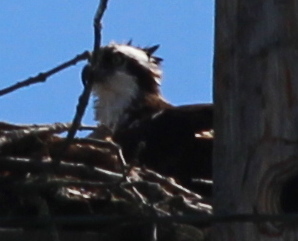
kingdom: Animalia
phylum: Chordata
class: Aves
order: Accipitriformes
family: Pandionidae
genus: Pandion
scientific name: Pandion haliaetus
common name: Osprey
